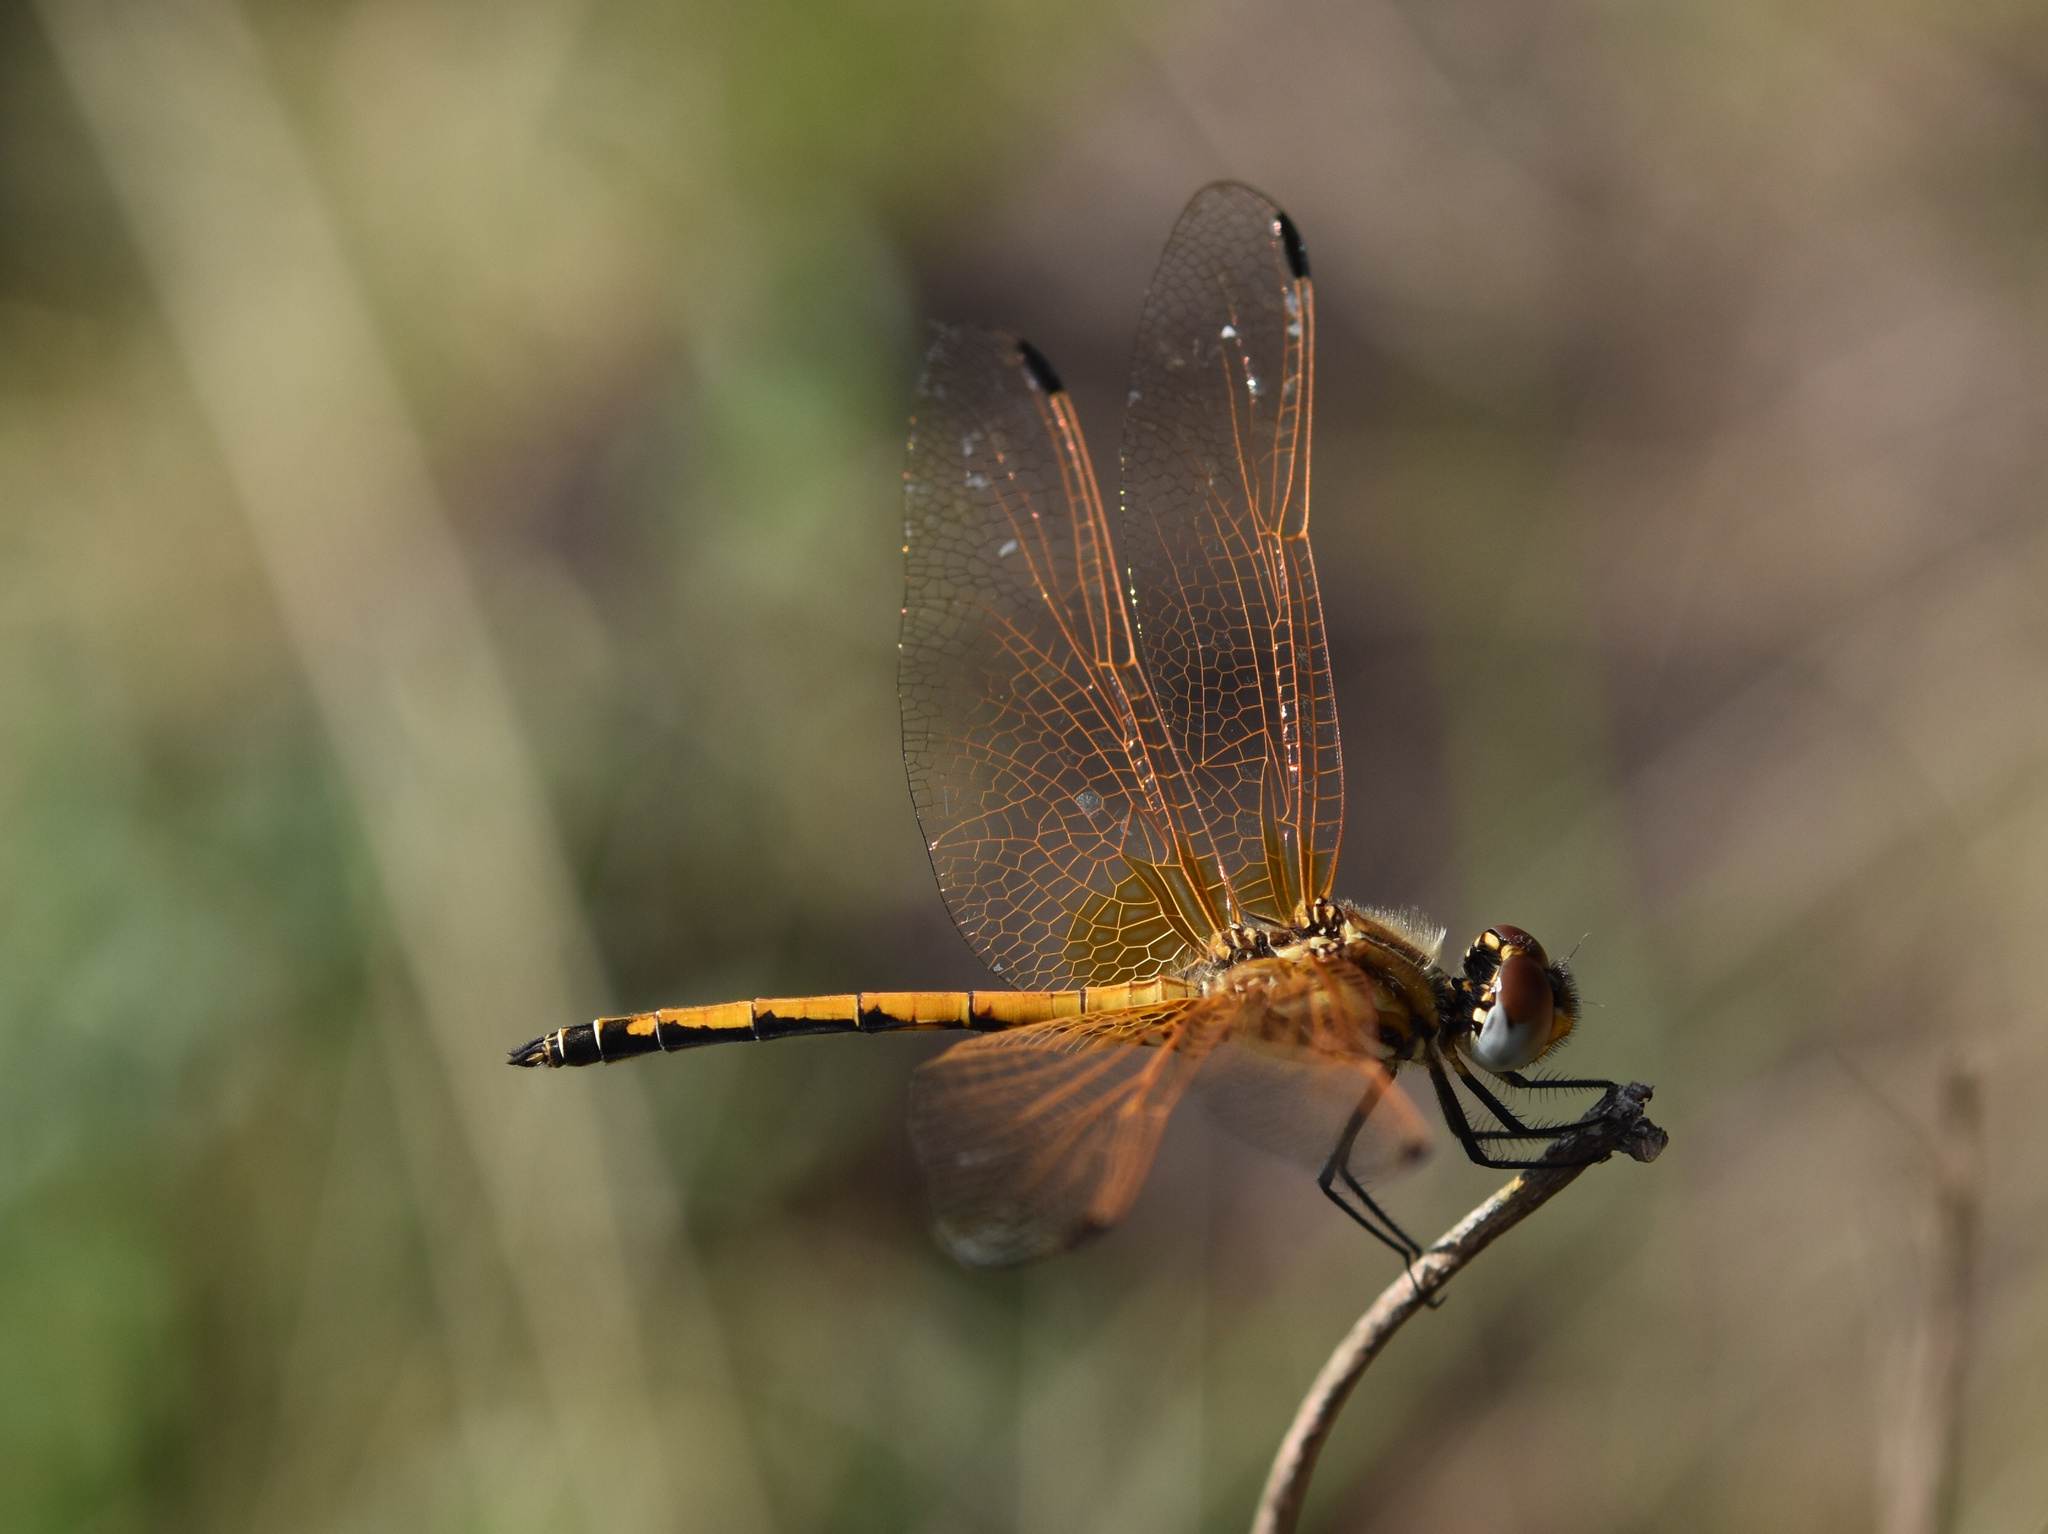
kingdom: Animalia
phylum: Arthropoda
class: Insecta
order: Odonata
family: Libellulidae
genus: Trithemis
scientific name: Trithemis arteriosa
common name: Red-veined dropwing
